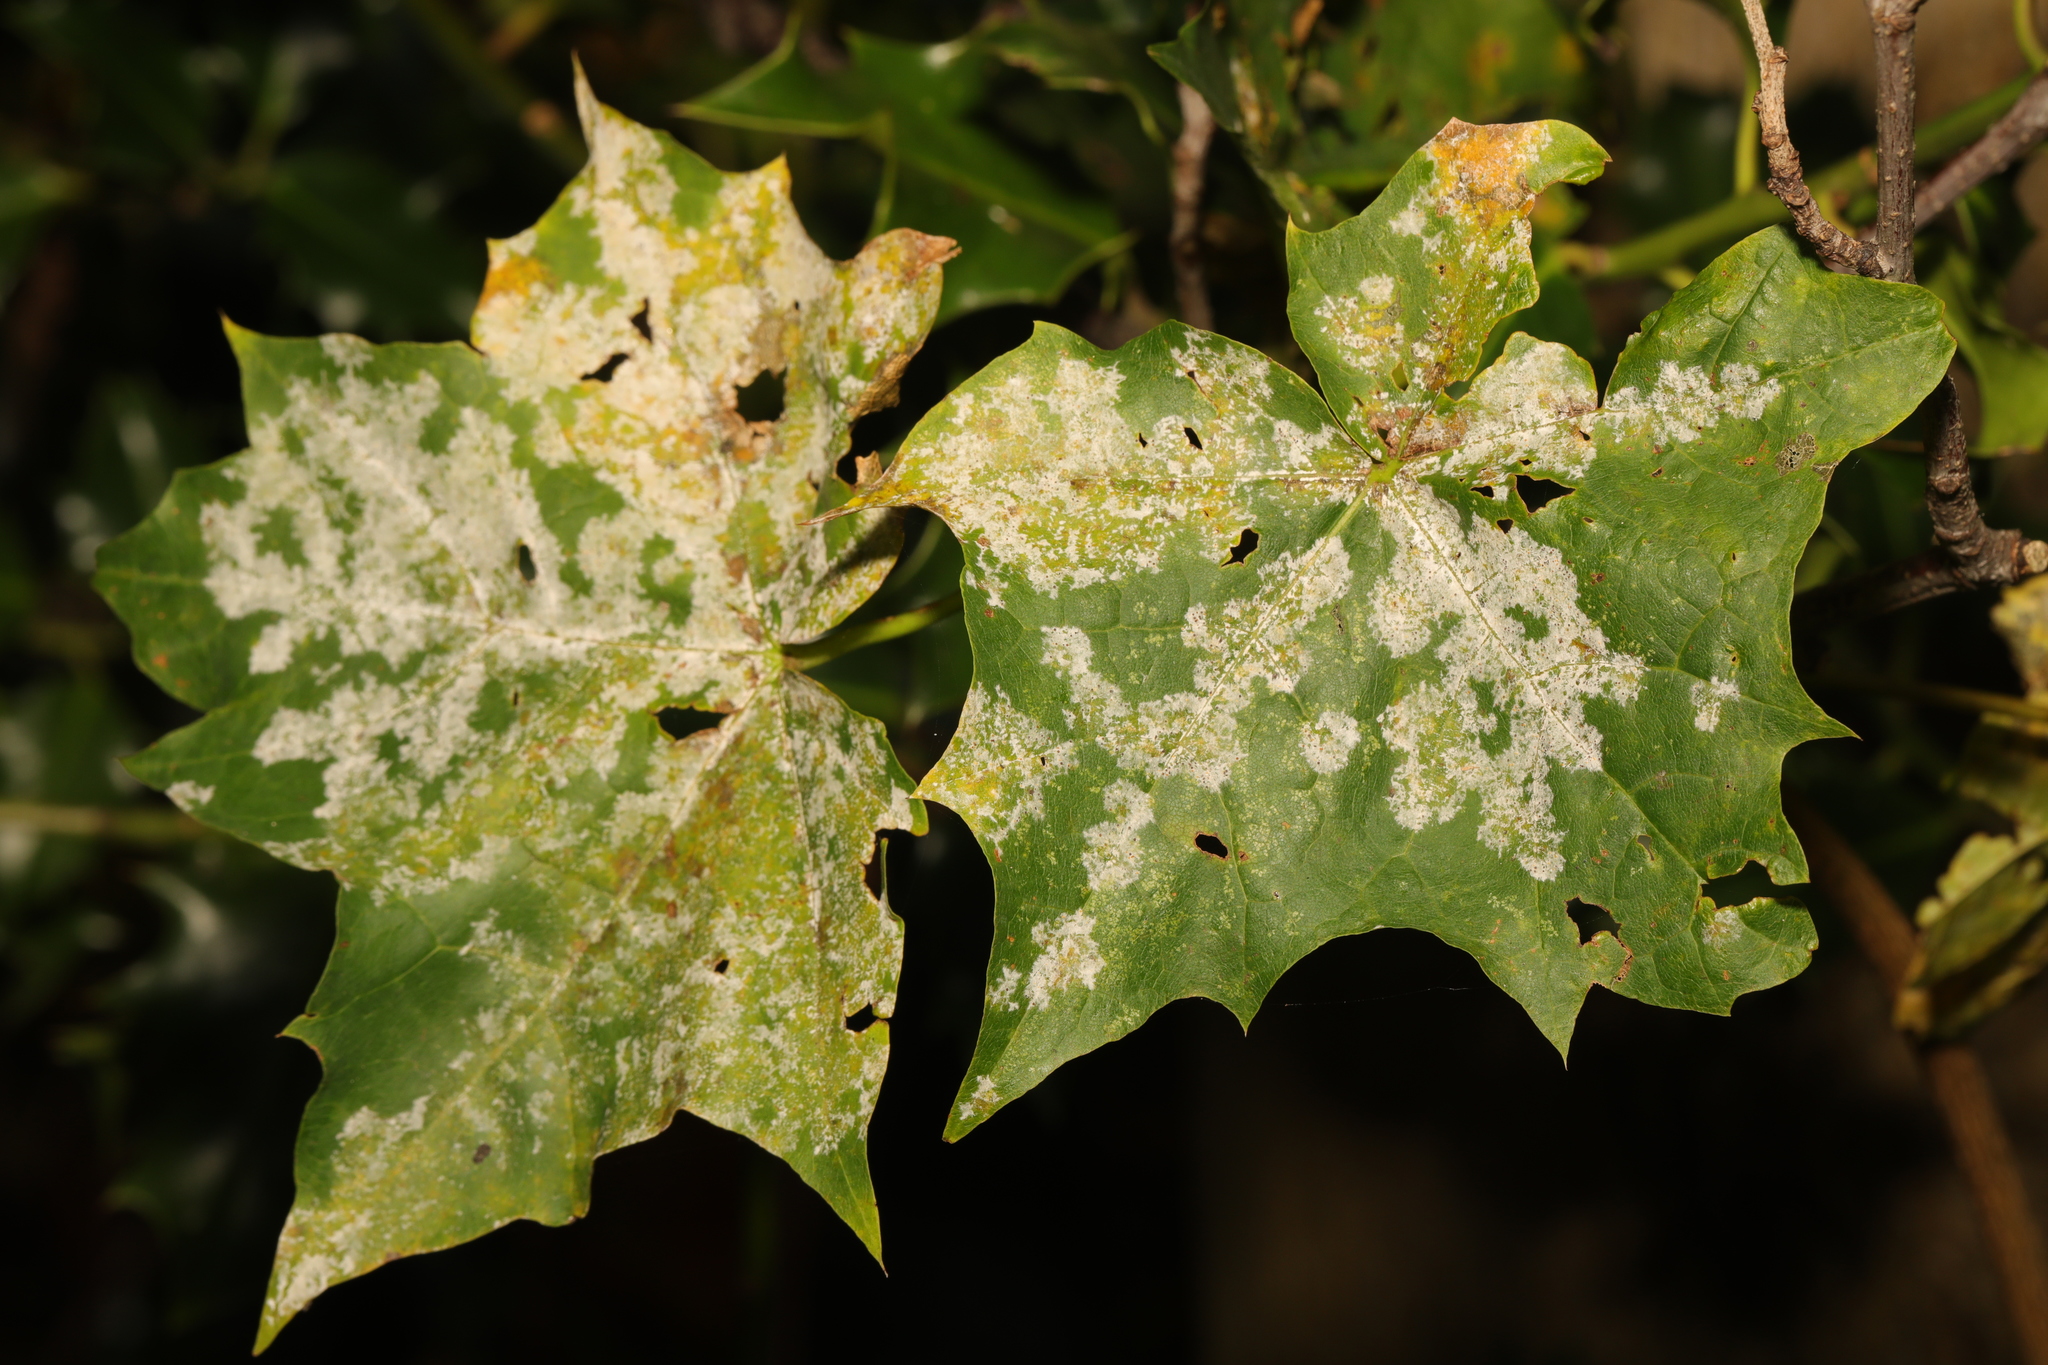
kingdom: Fungi
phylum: Ascomycota
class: Leotiomycetes
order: Helotiales
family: Erysiphaceae
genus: Sawadaea
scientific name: Sawadaea tulasnei
